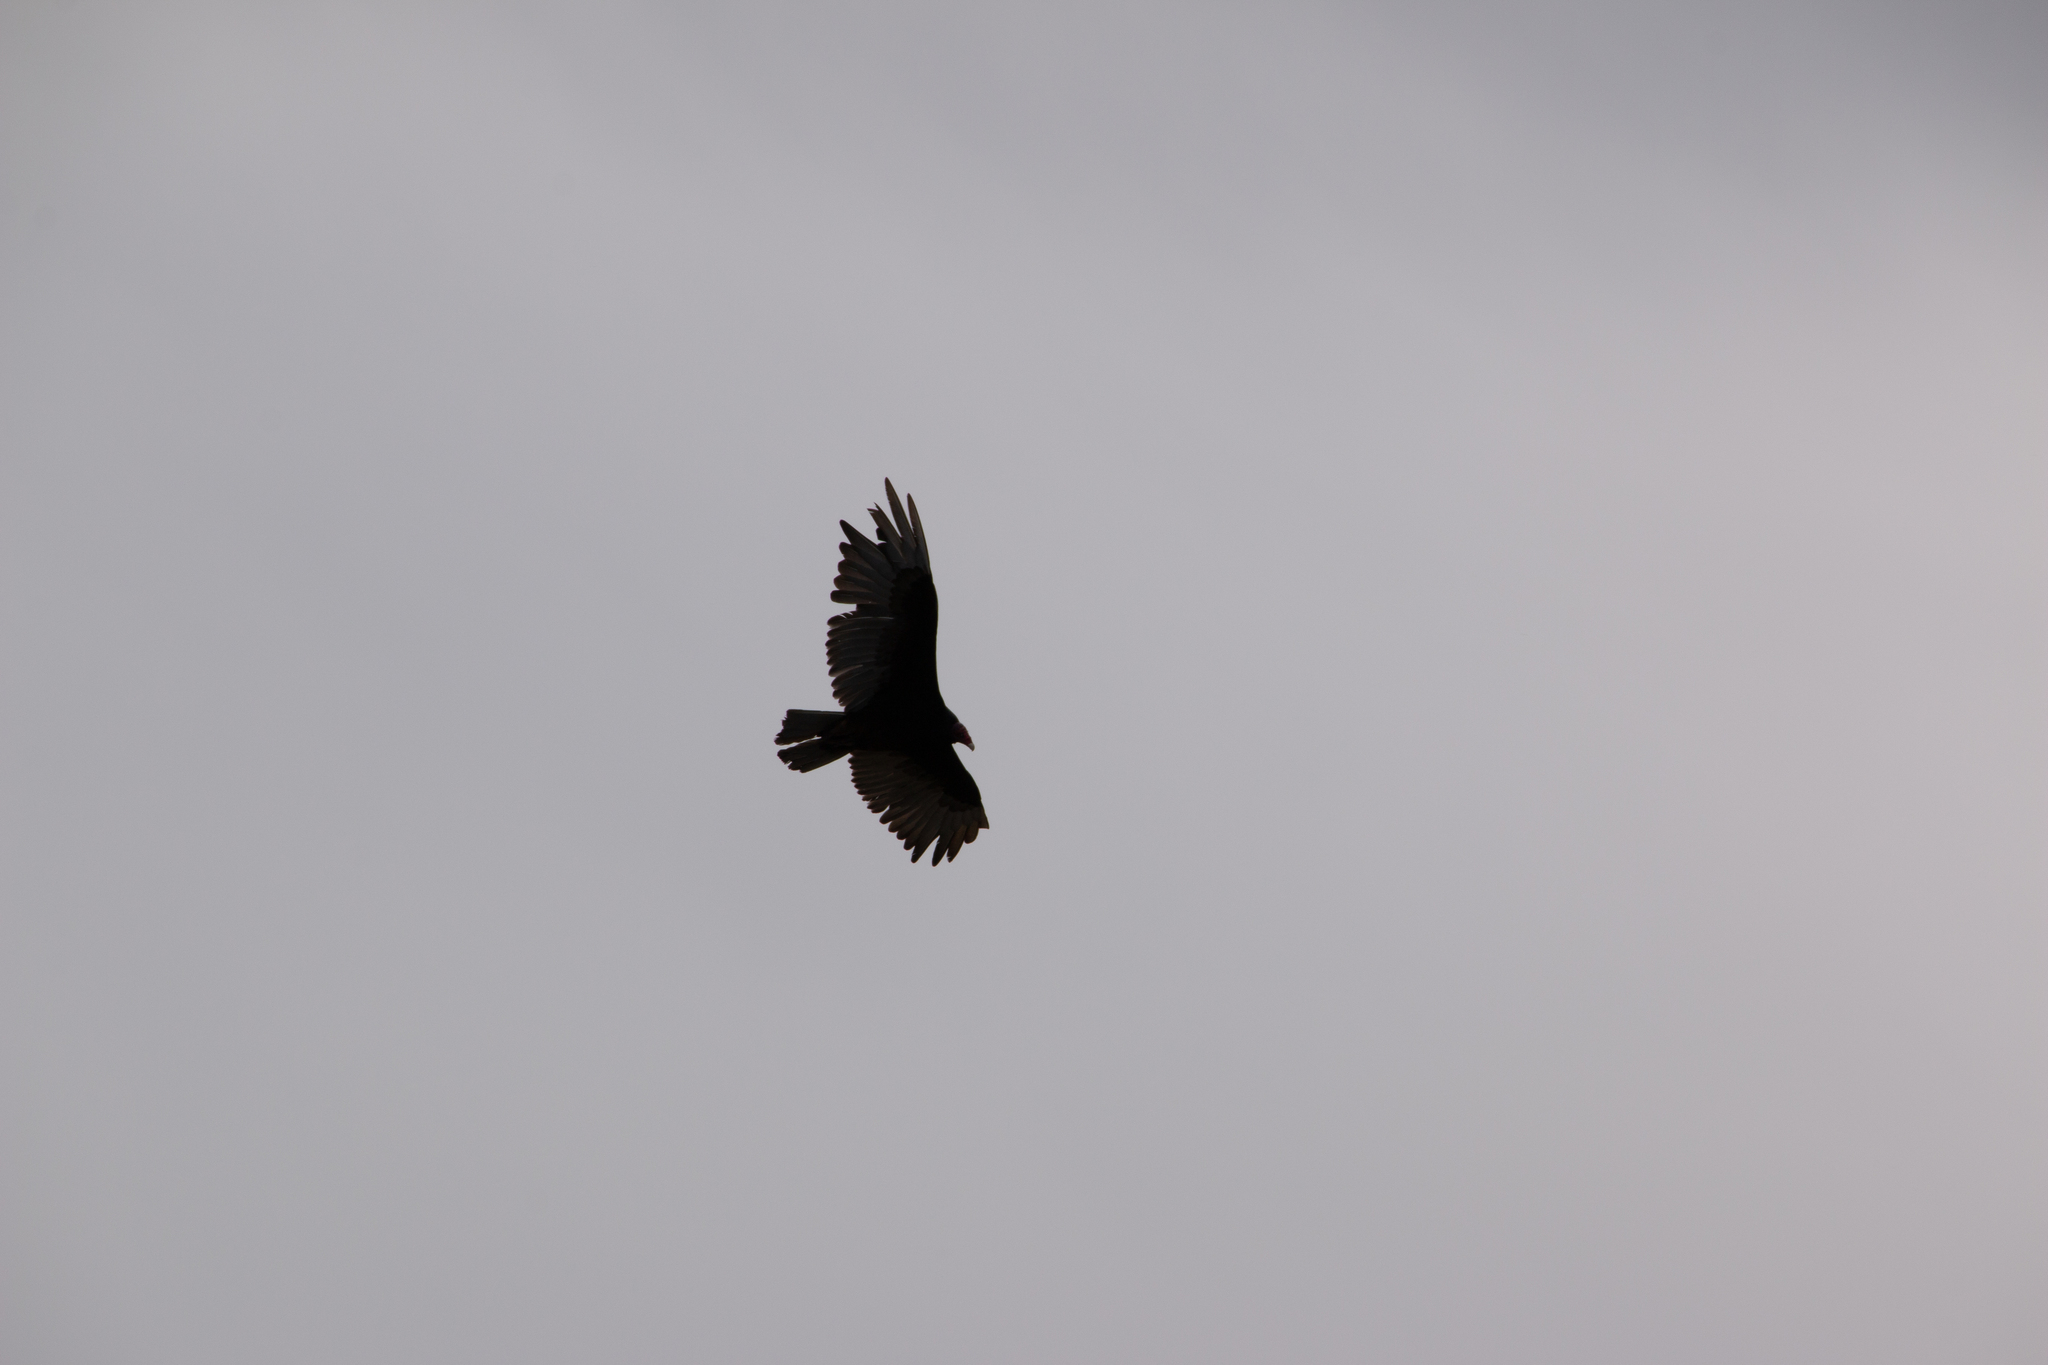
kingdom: Animalia
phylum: Chordata
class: Aves
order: Accipitriformes
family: Cathartidae
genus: Cathartes
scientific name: Cathartes aura
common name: Turkey vulture
